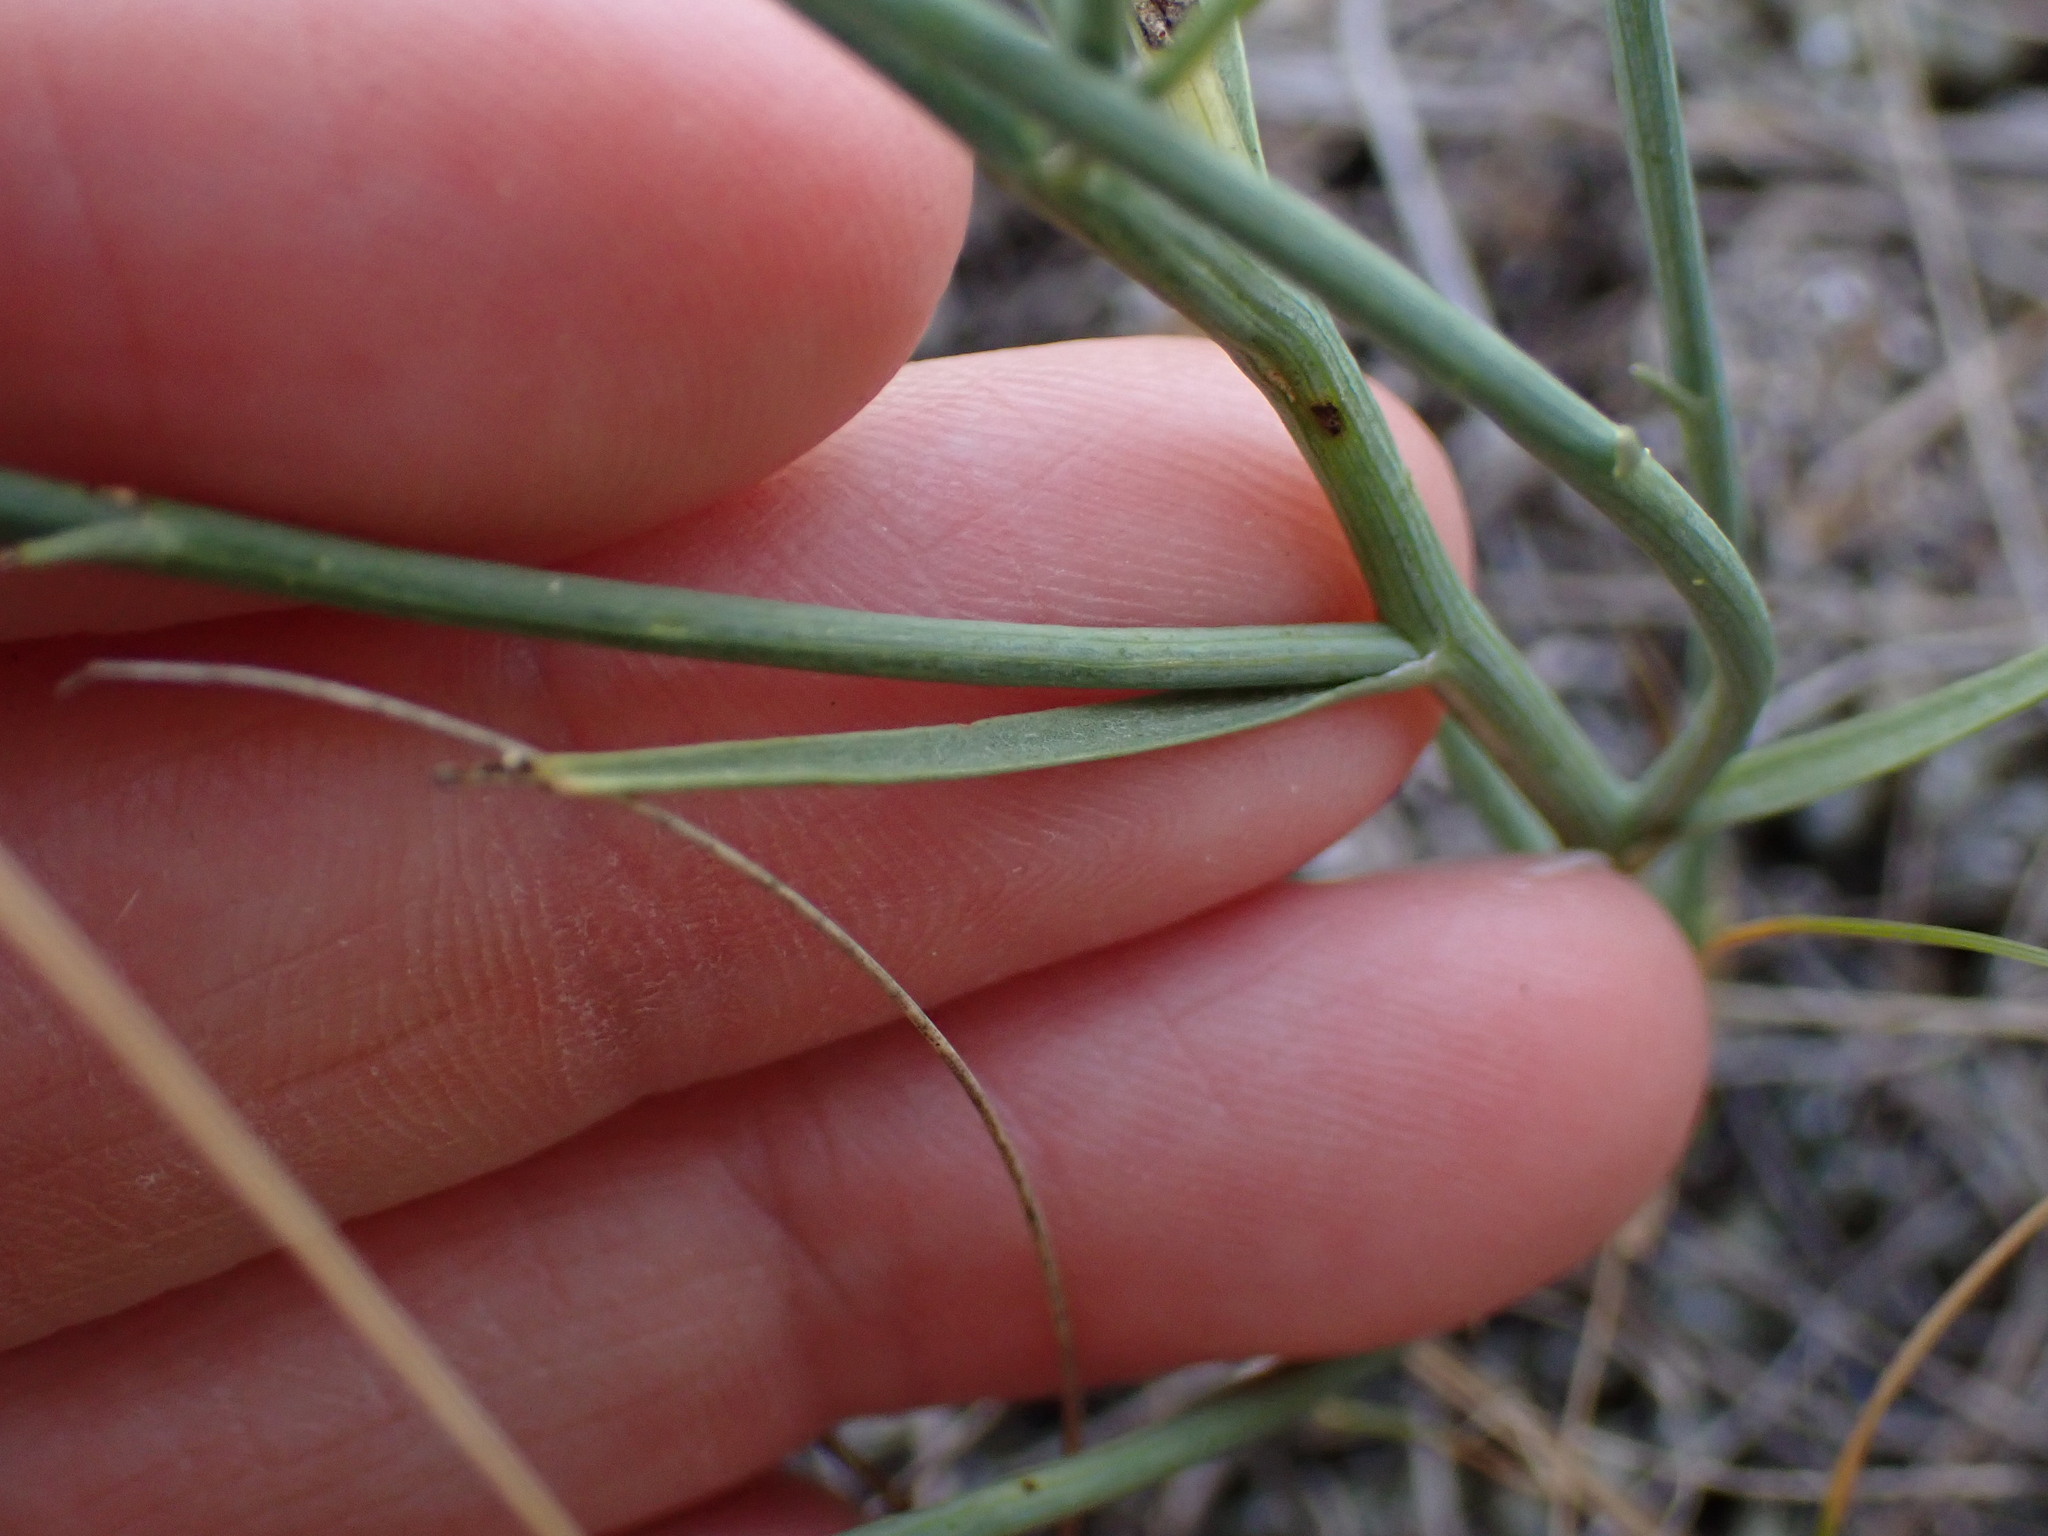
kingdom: Plantae
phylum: Tracheophyta
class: Magnoliopsida
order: Asterales
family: Asteraceae
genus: Lygodesmia
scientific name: Lygodesmia juncea
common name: Common skeletonweed
